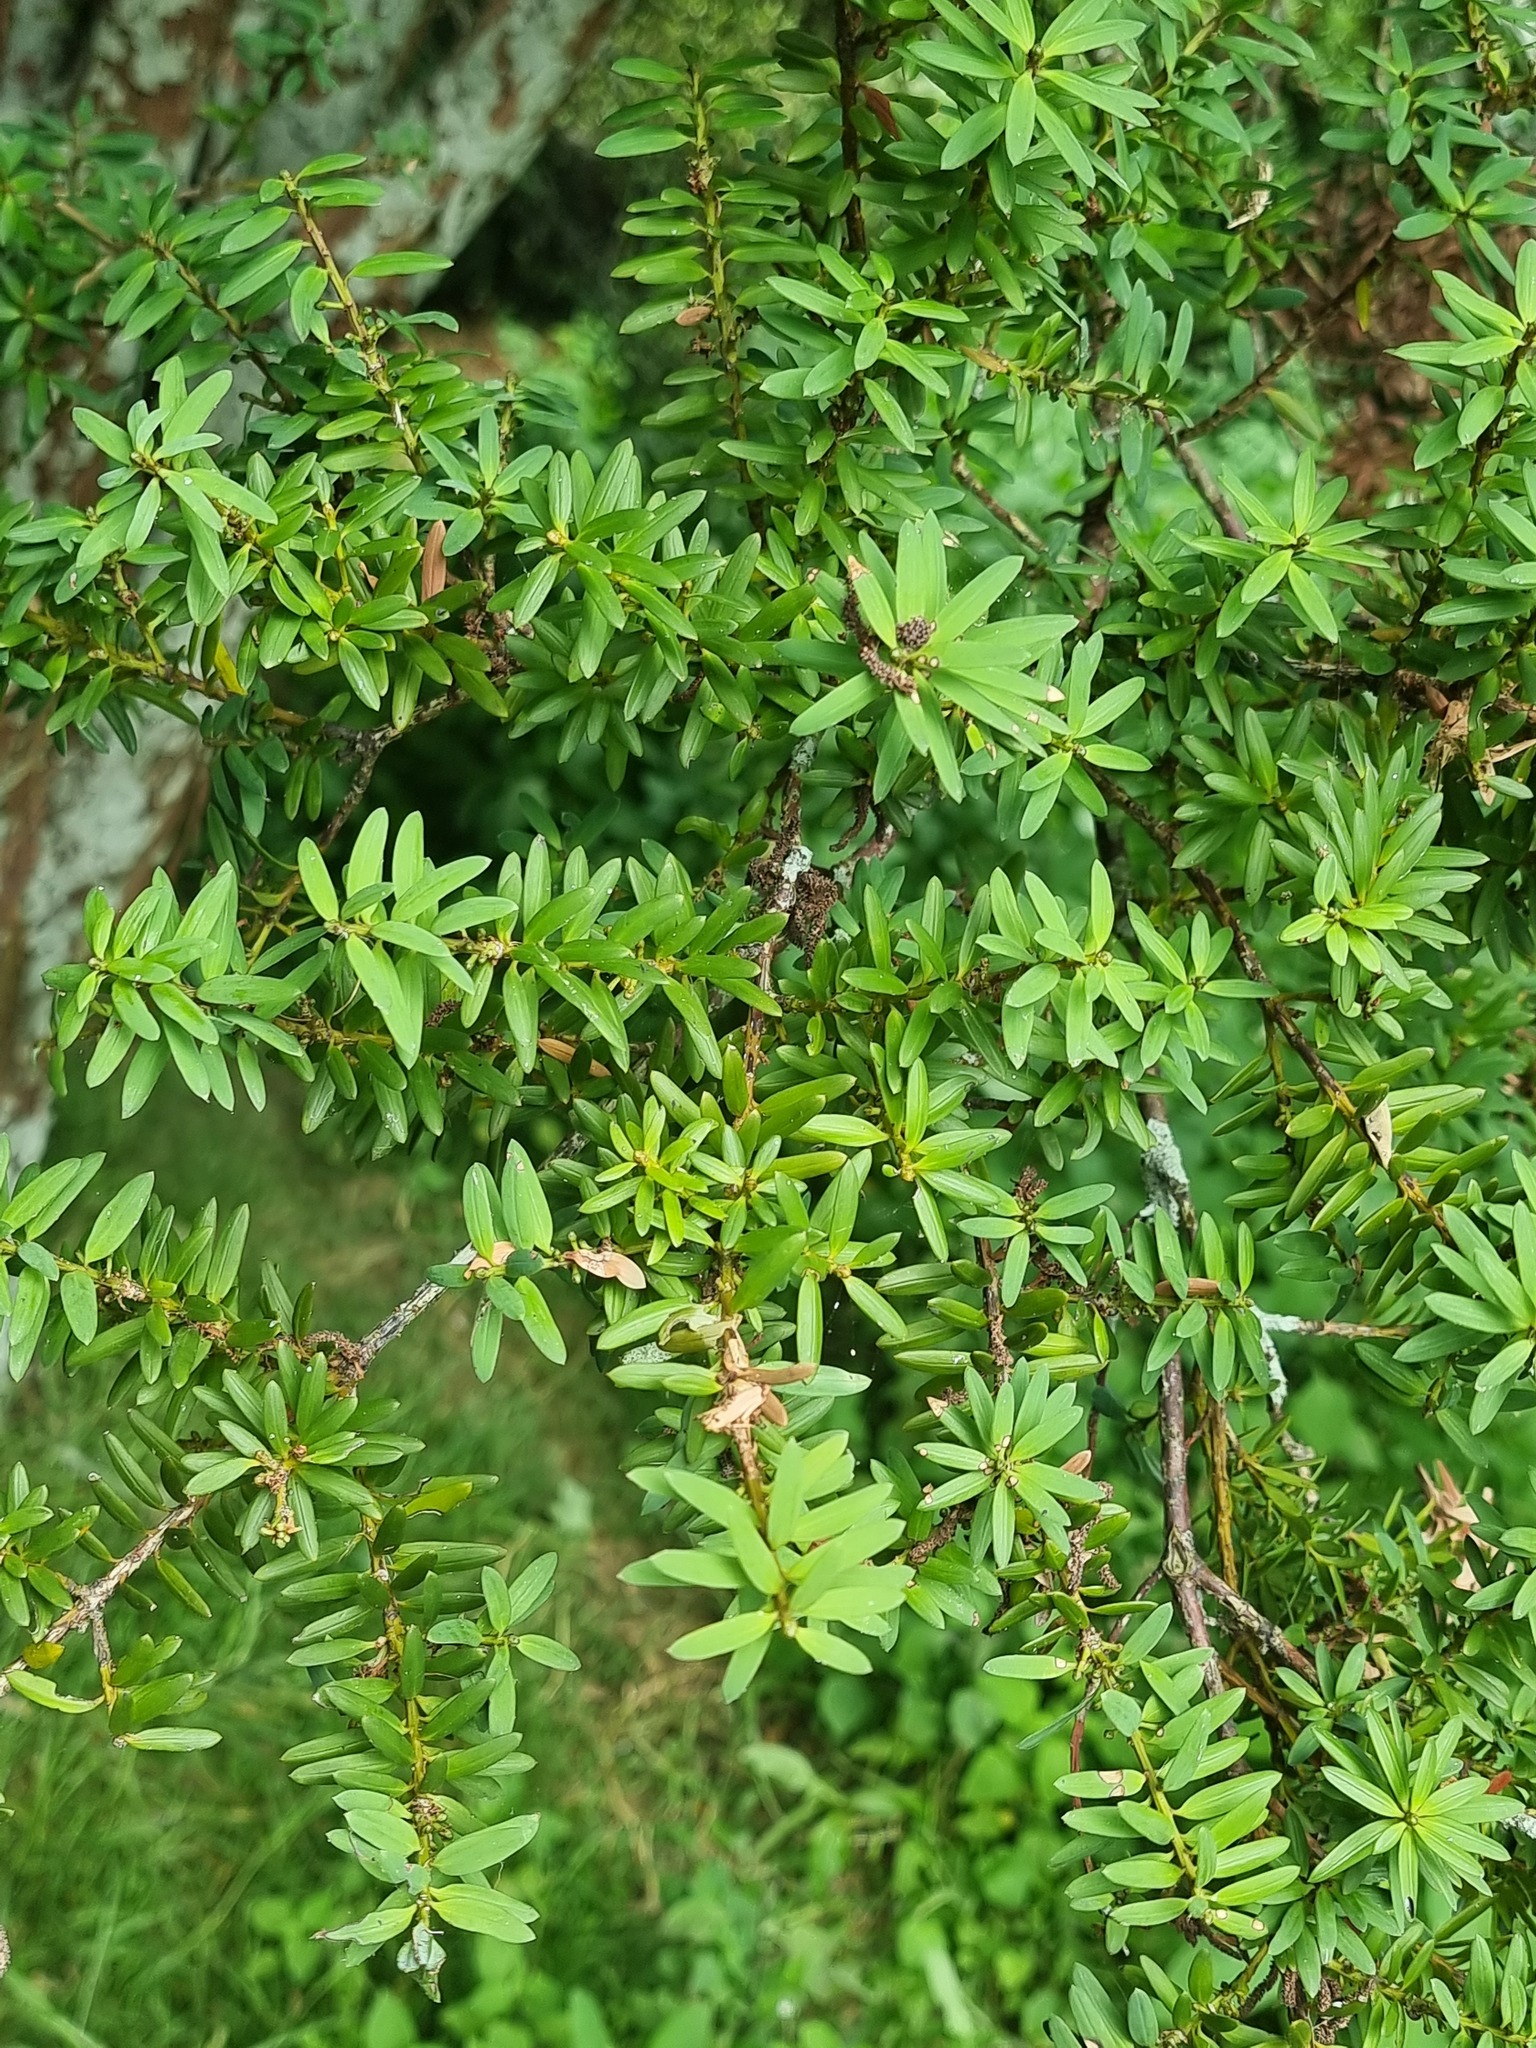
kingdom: Plantae
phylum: Tracheophyta
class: Pinopsida
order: Pinales
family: Podocarpaceae
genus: Podocarpus
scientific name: Podocarpus totara
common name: Totara
